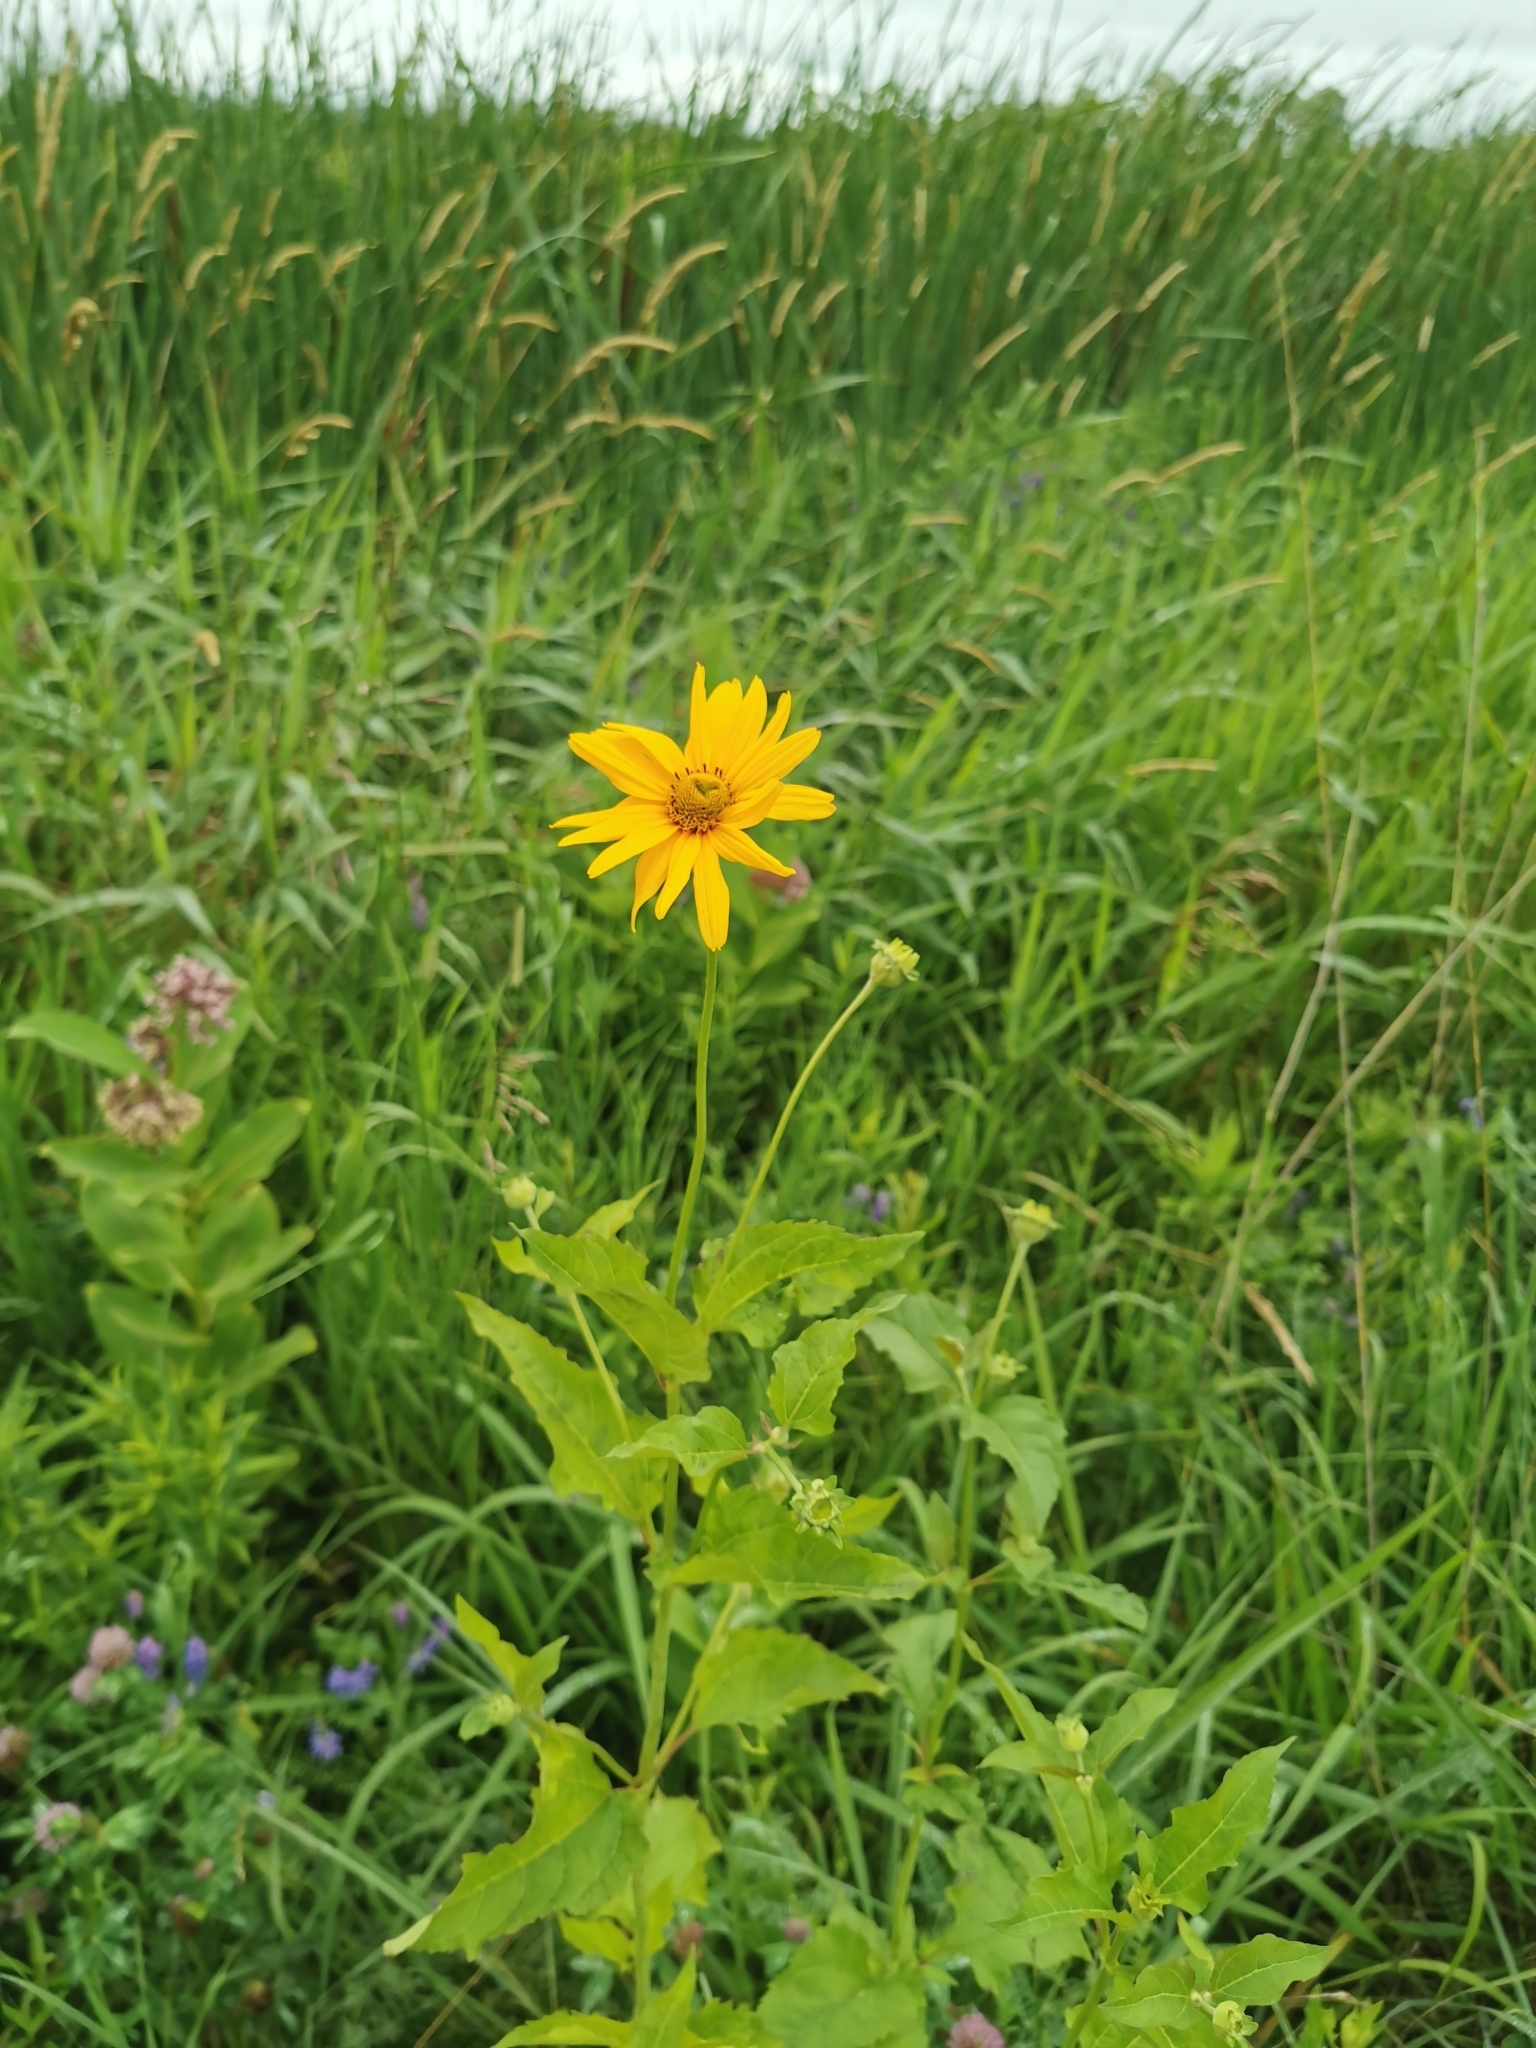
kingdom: Plantae
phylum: Tracheophyta
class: Magnoliopsida
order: Asterales
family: Asteraceae
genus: Heliopsis
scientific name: Heliopsis helianthoides
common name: False sunflower
